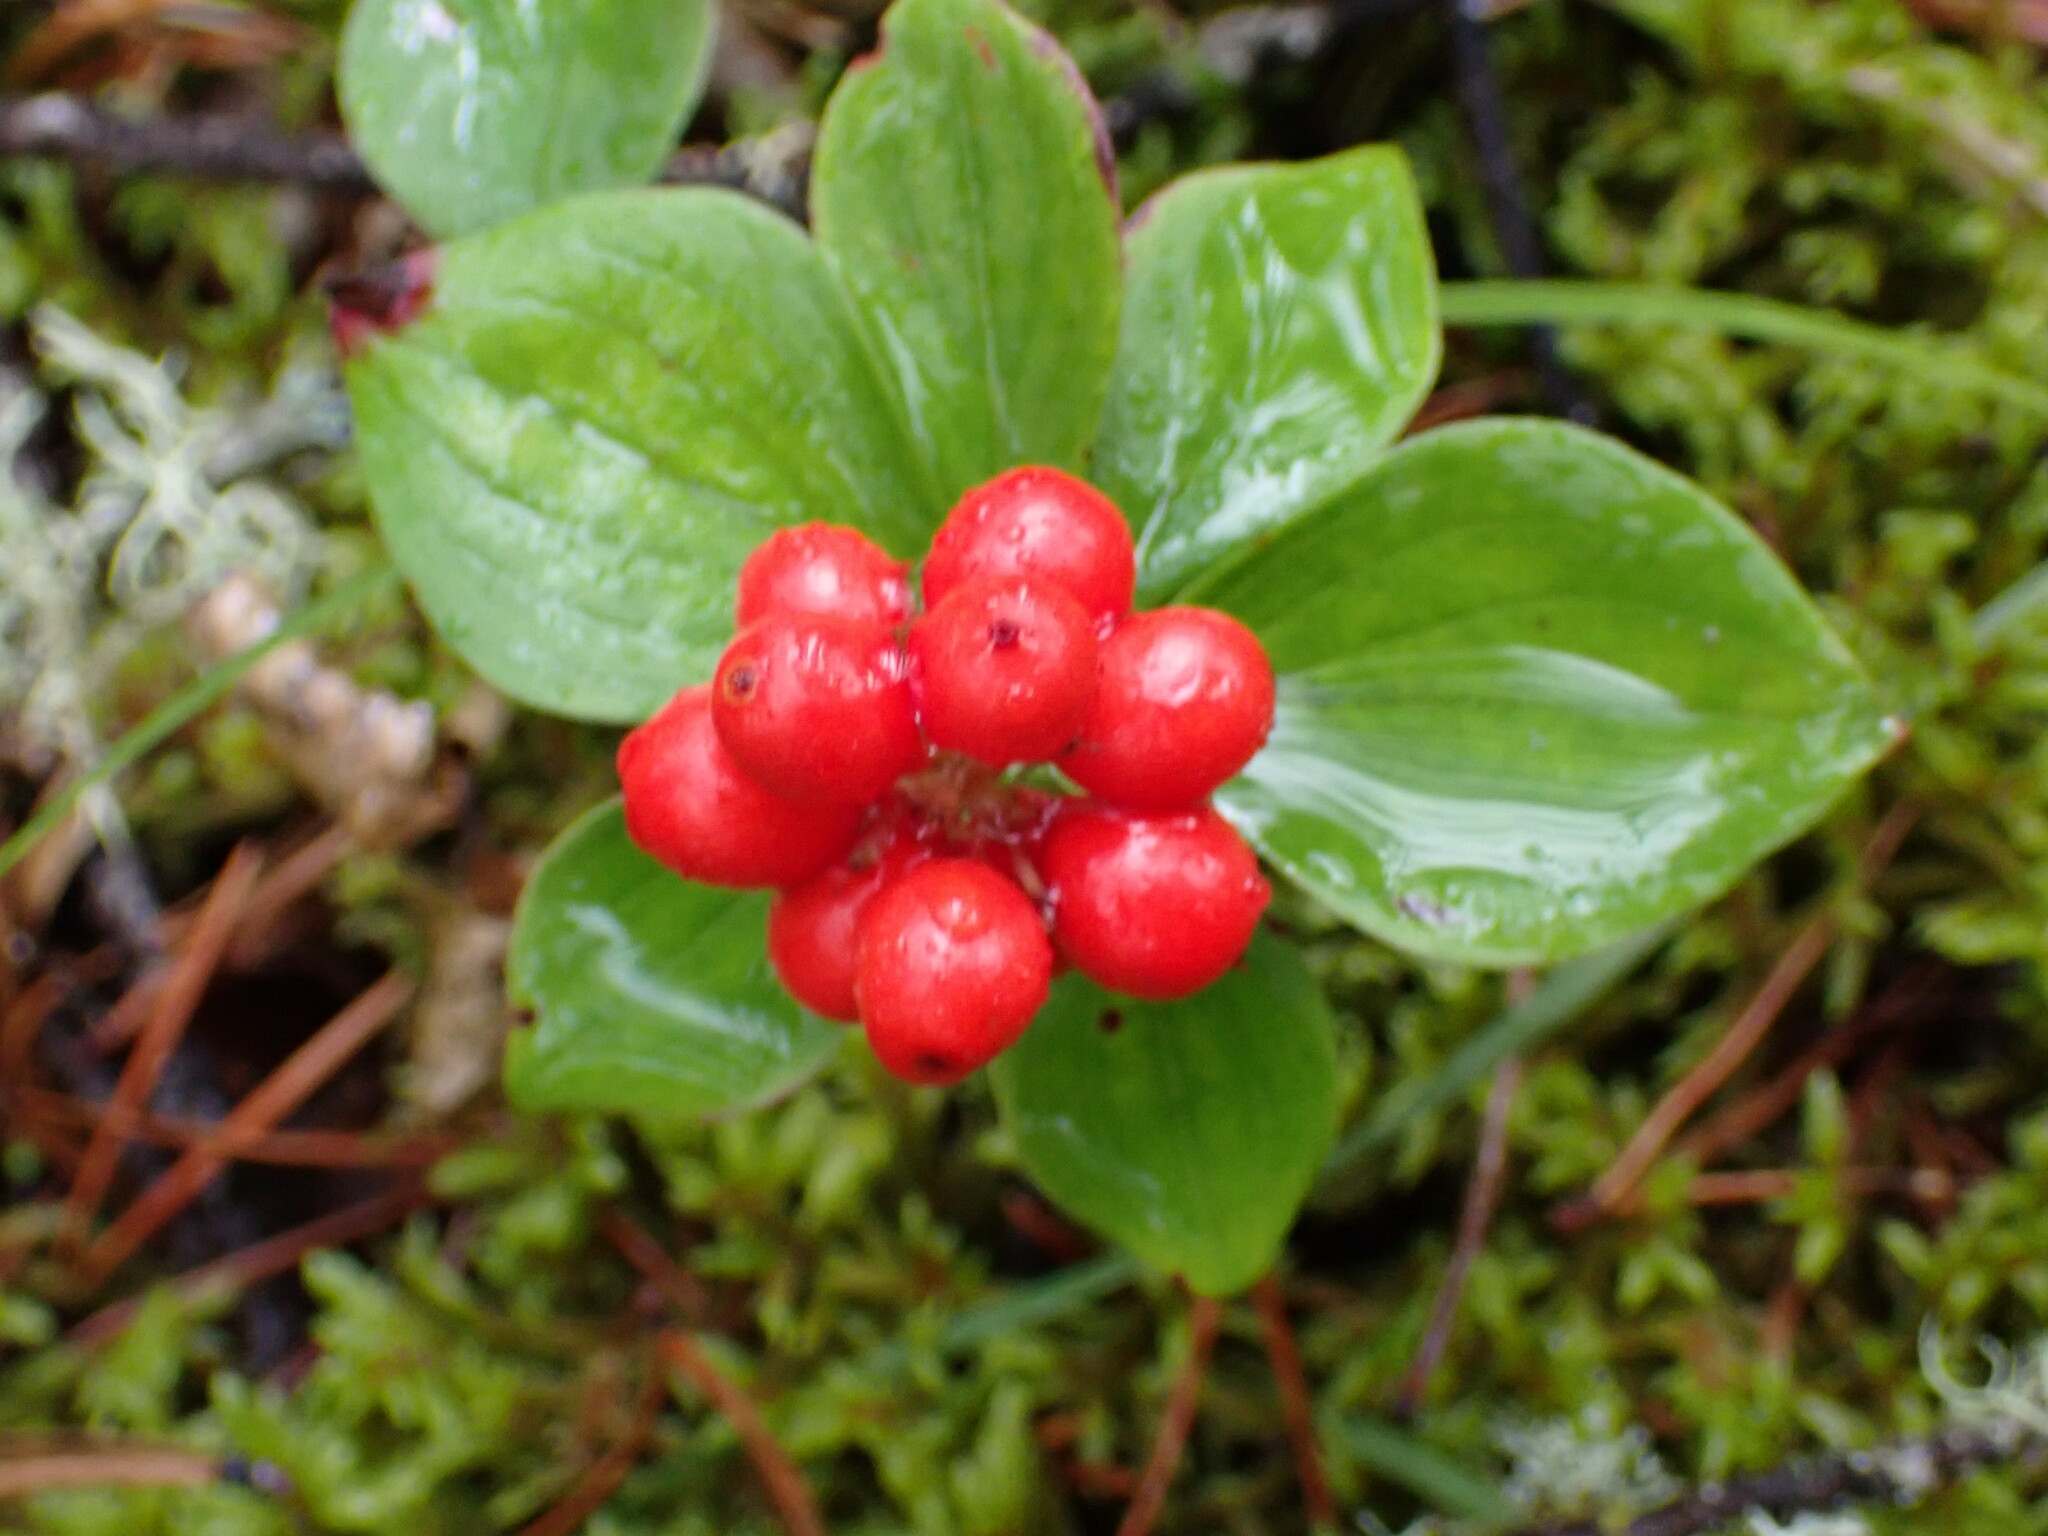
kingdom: Plantae
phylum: Tracheophyta
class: Magnoliopsida
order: Cornales
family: Cornaceae
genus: Cornus
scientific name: Cornus canadensis
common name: Creeping dogwood
